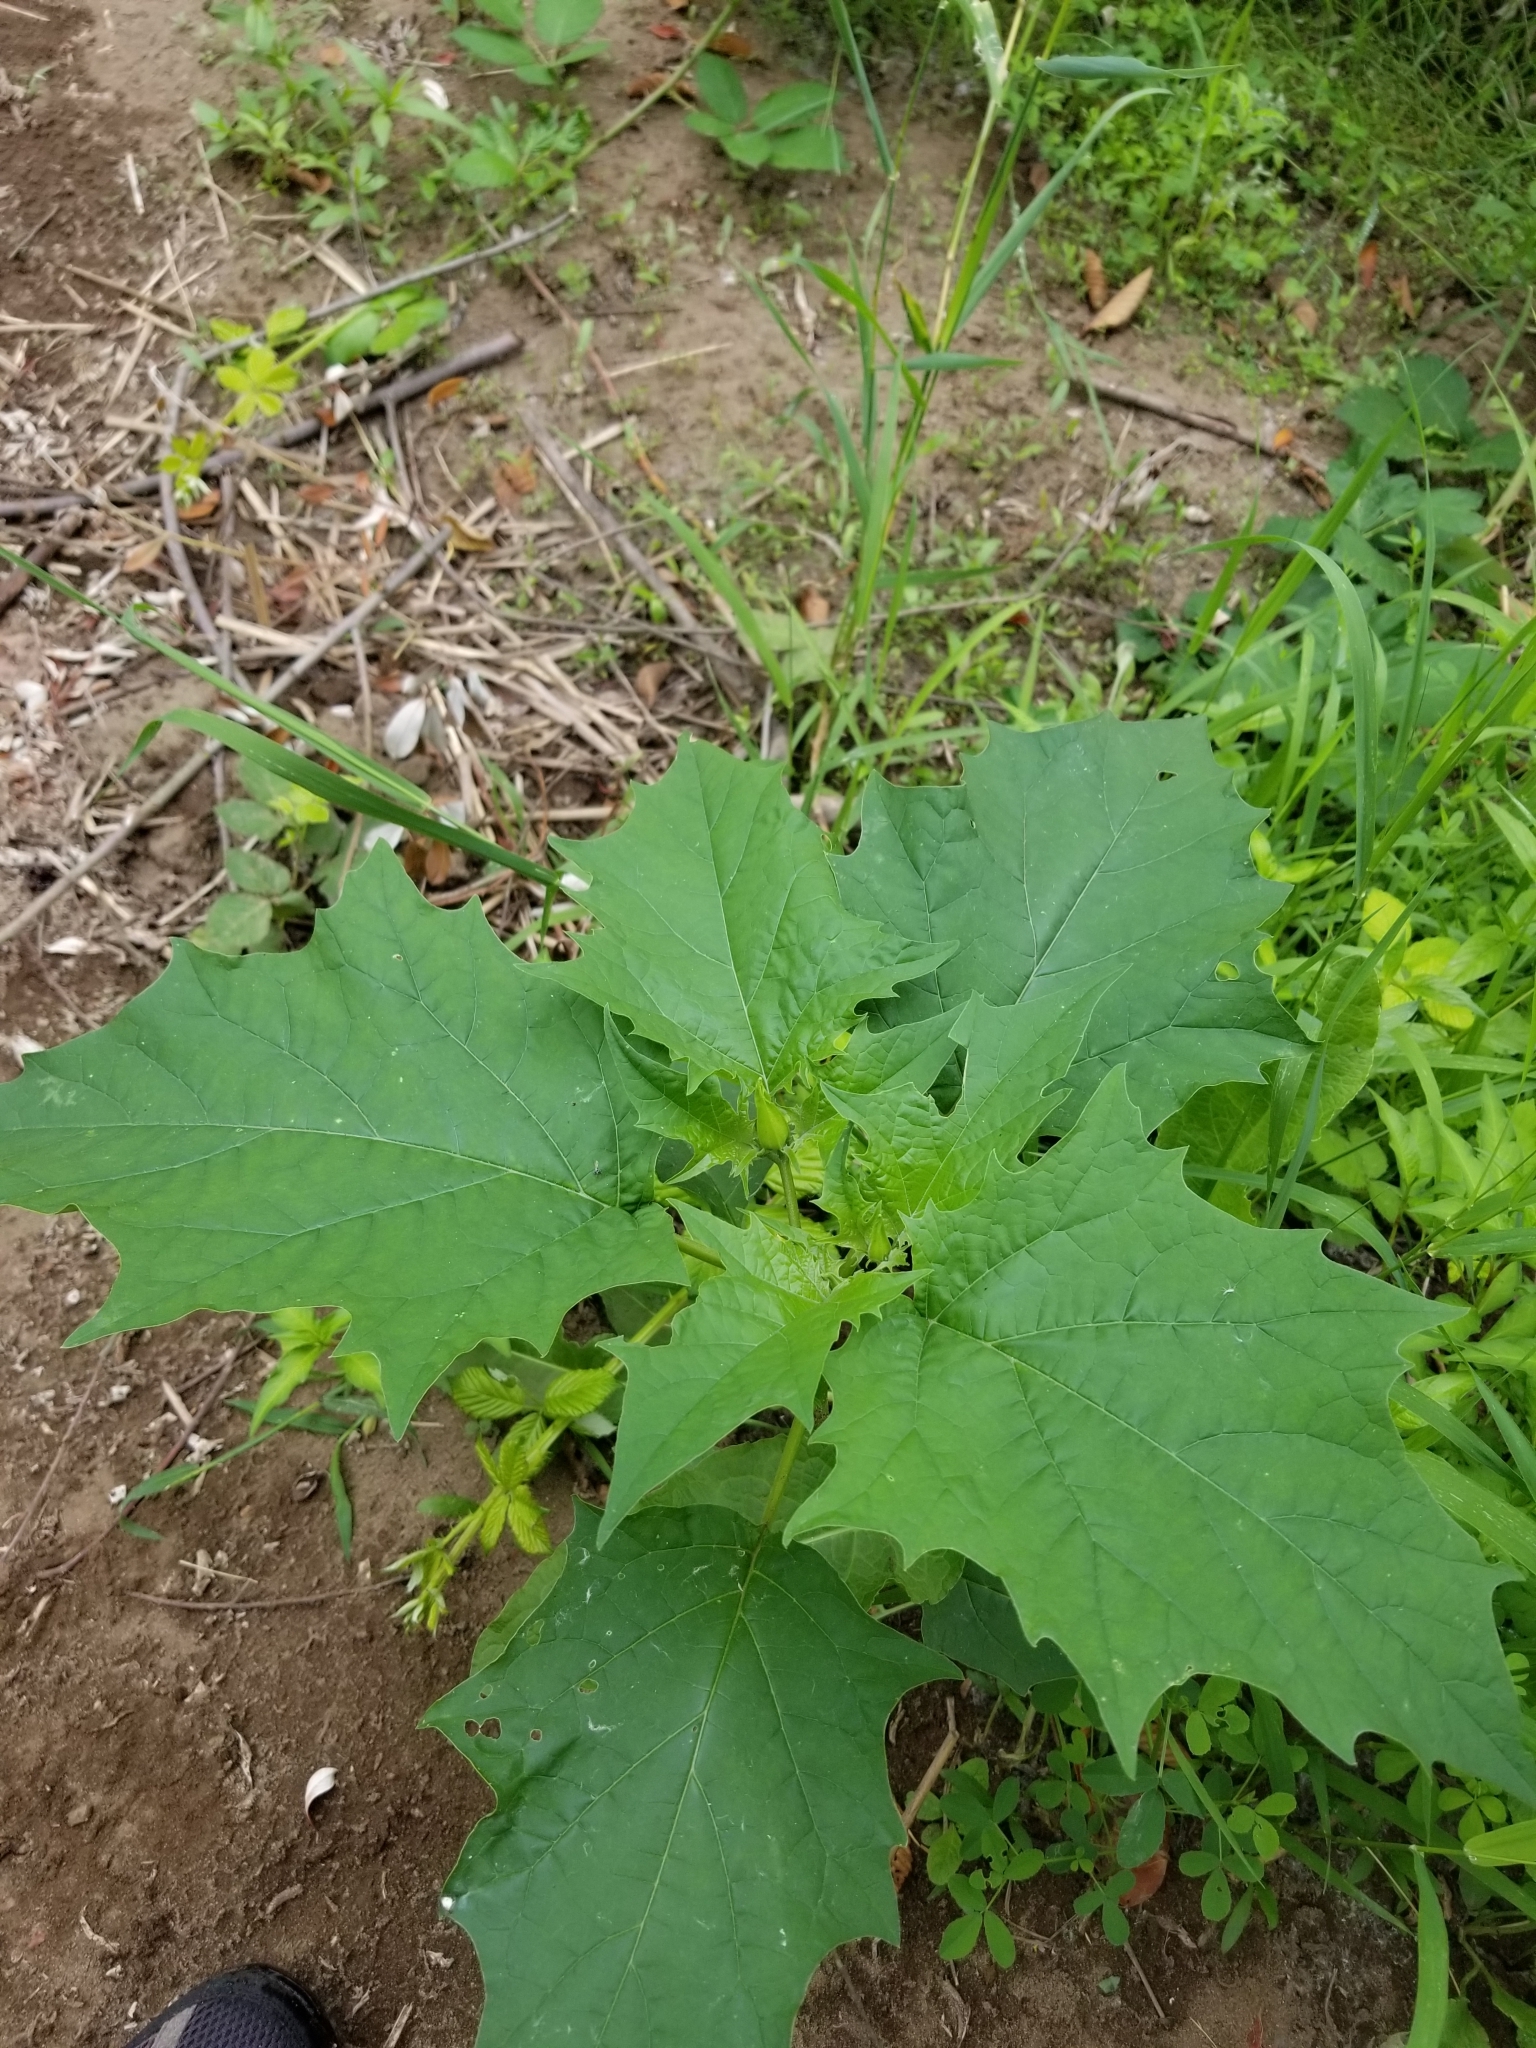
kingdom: Plantae
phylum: Tracheophyta
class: Magnoliopsida
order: Solanales
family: Solanaceae
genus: Datura
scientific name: Datura stramonium
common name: Thorn-apple
